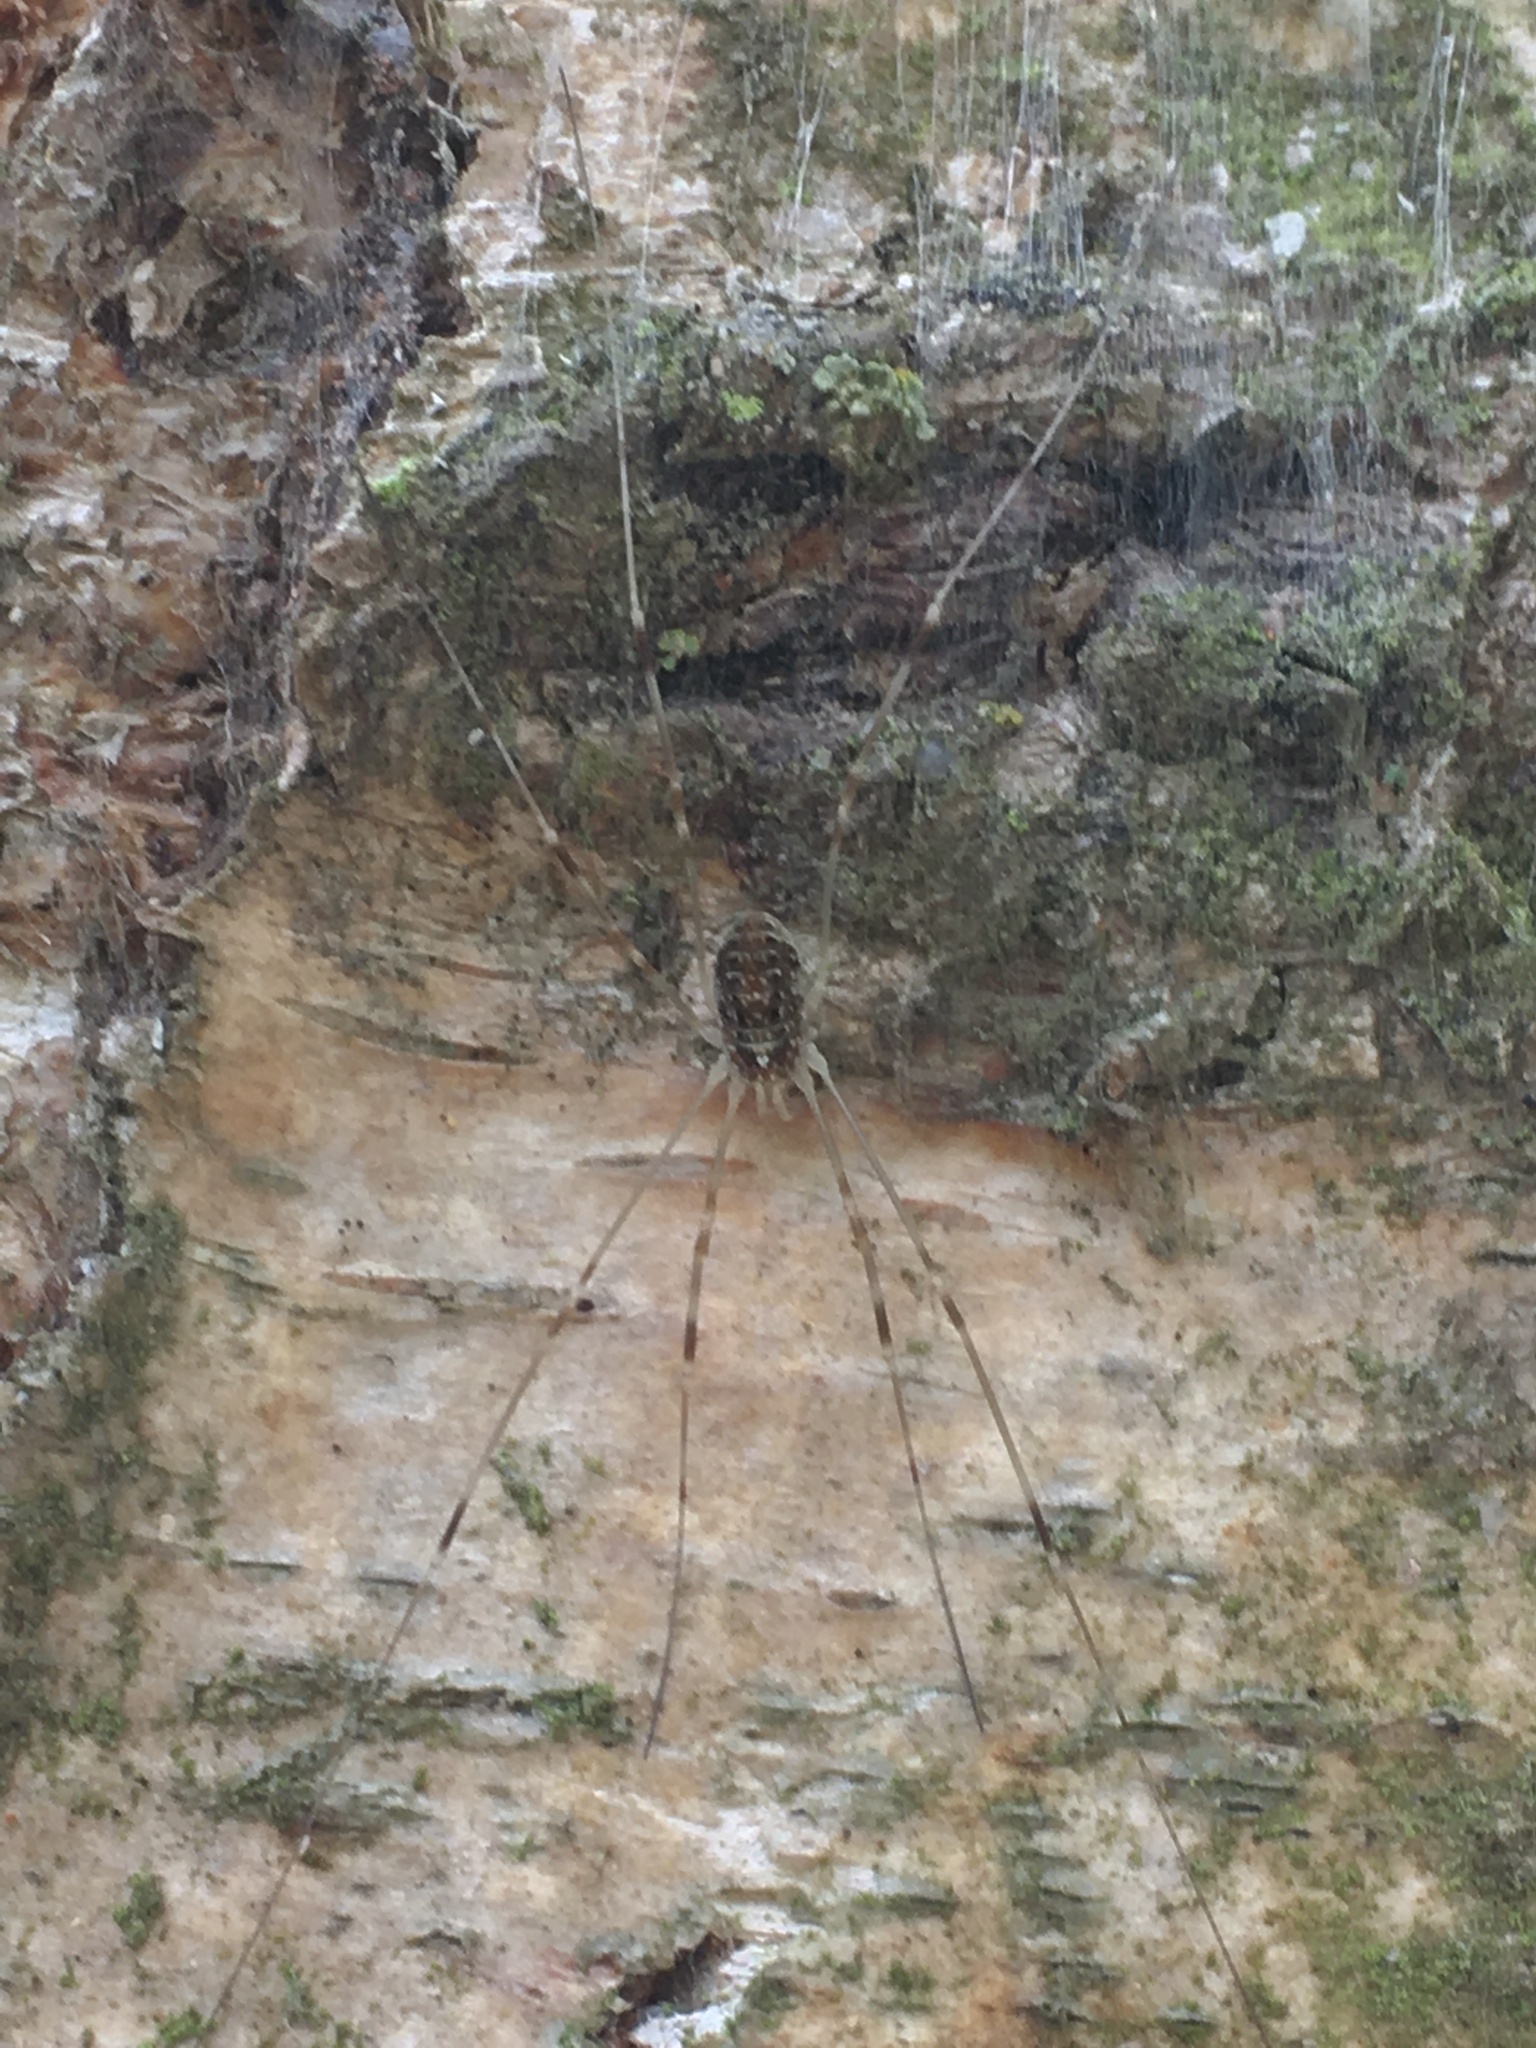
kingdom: Animalia
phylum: Arthropoda
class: Arachnida
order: Opiliones
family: Phalangiidae
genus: Opilio
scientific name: Opilio canestrinii
